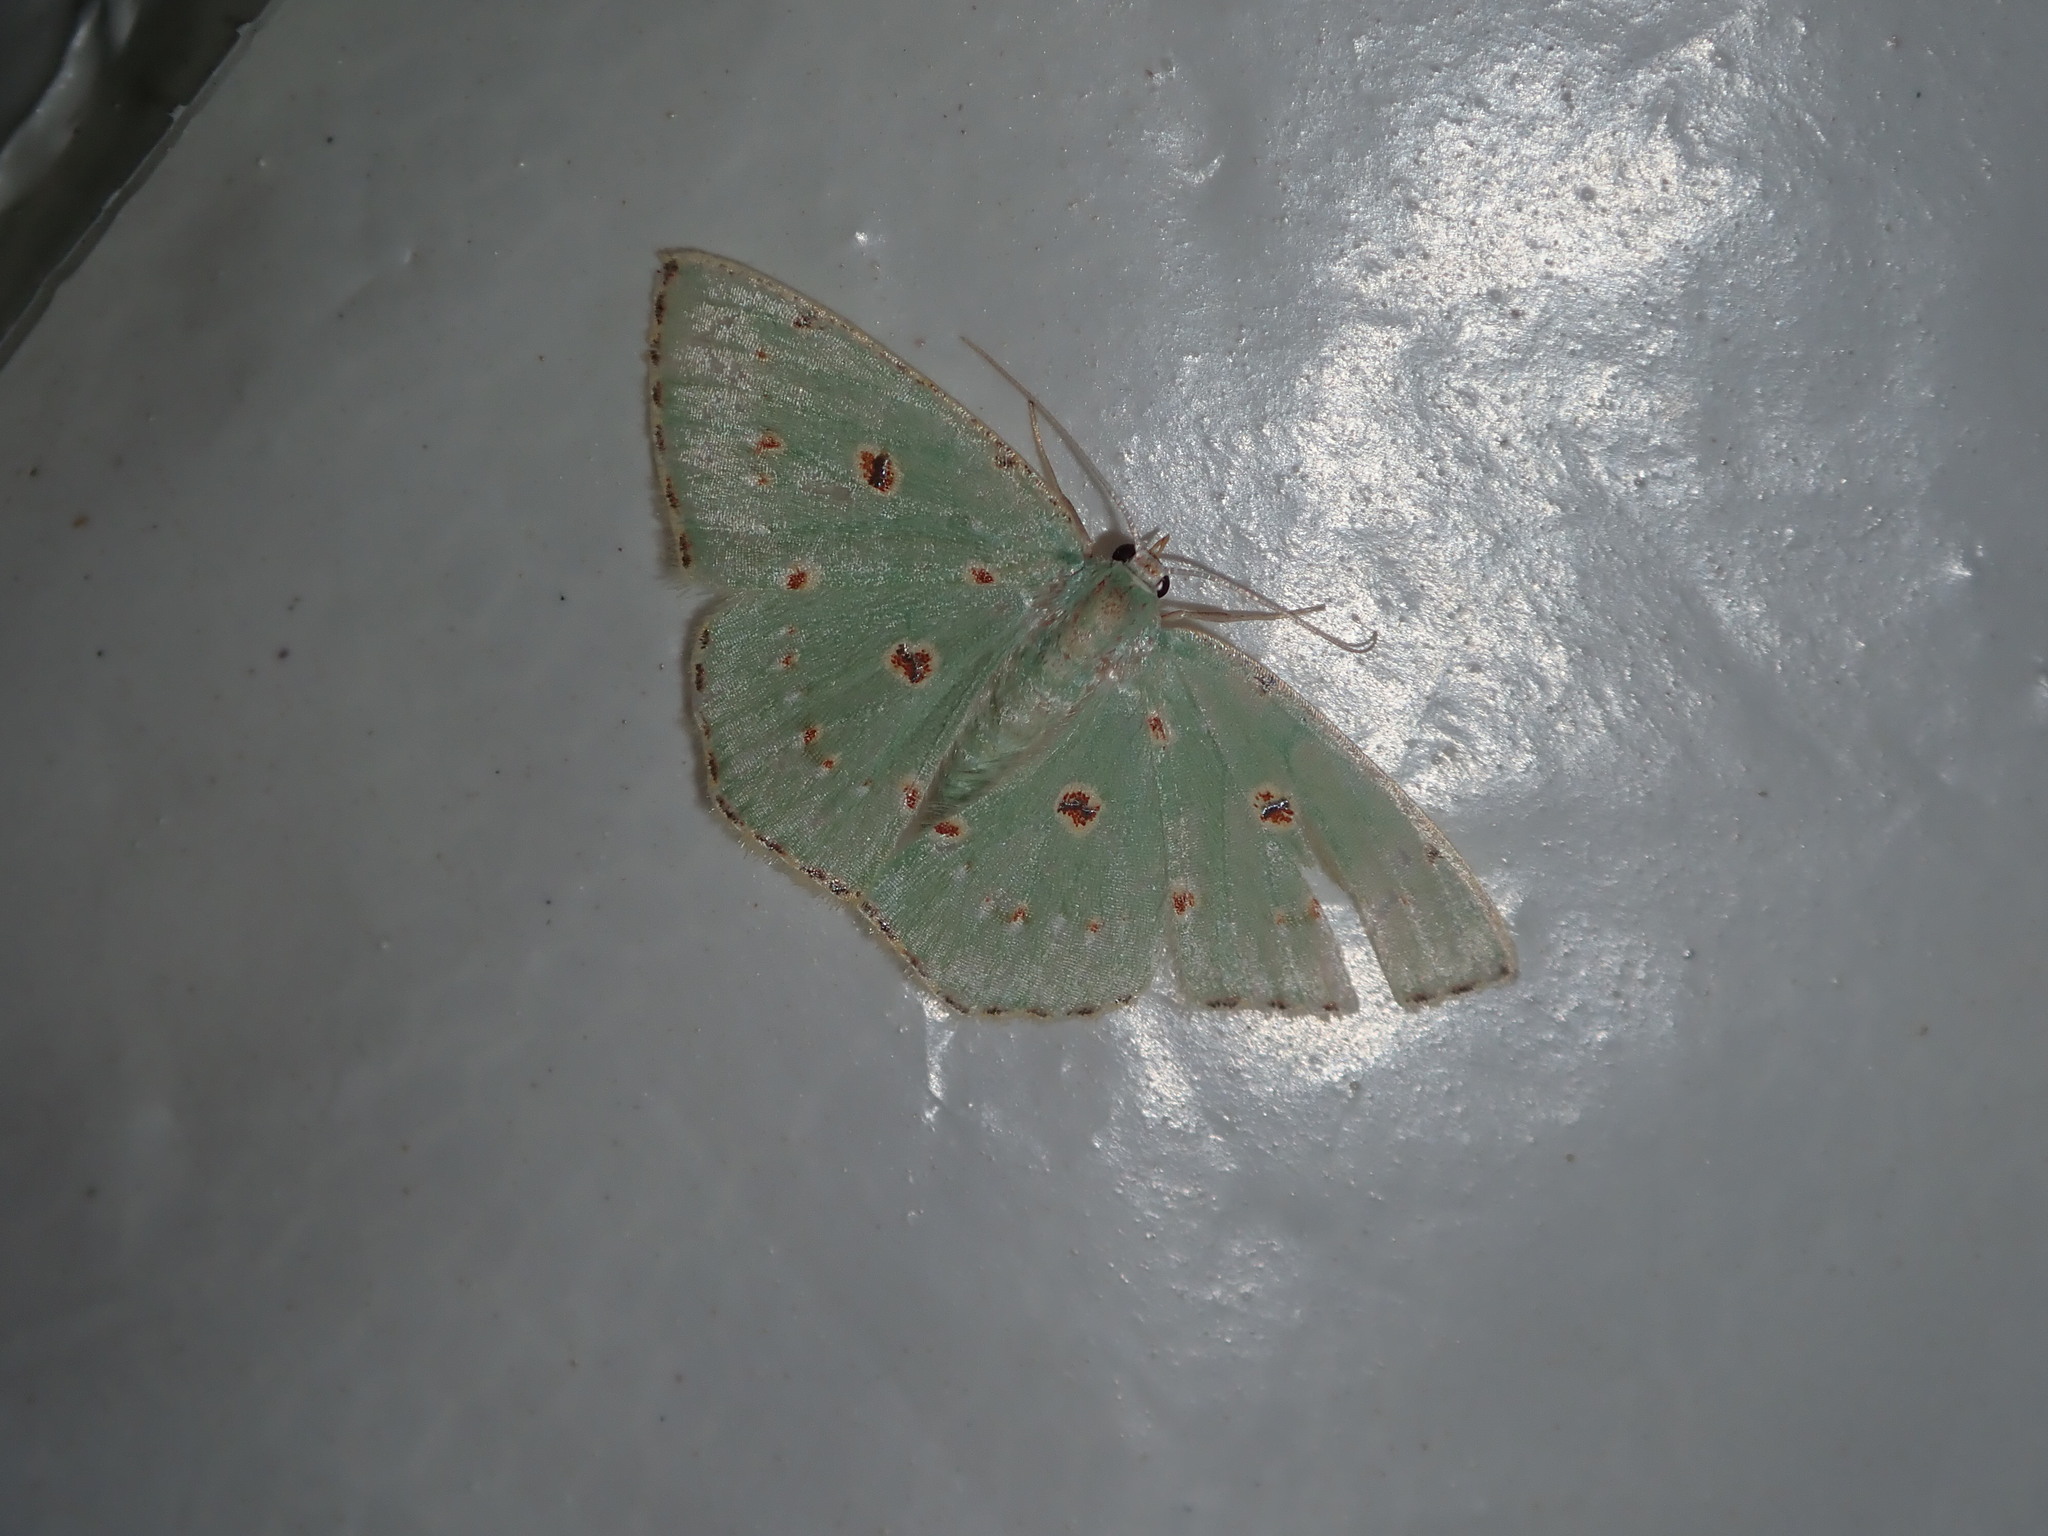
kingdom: Animalia
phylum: Arthropoda
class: Insecta
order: Lepidoptera
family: Geometridae
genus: Comostola
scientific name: Comostola laesaria
